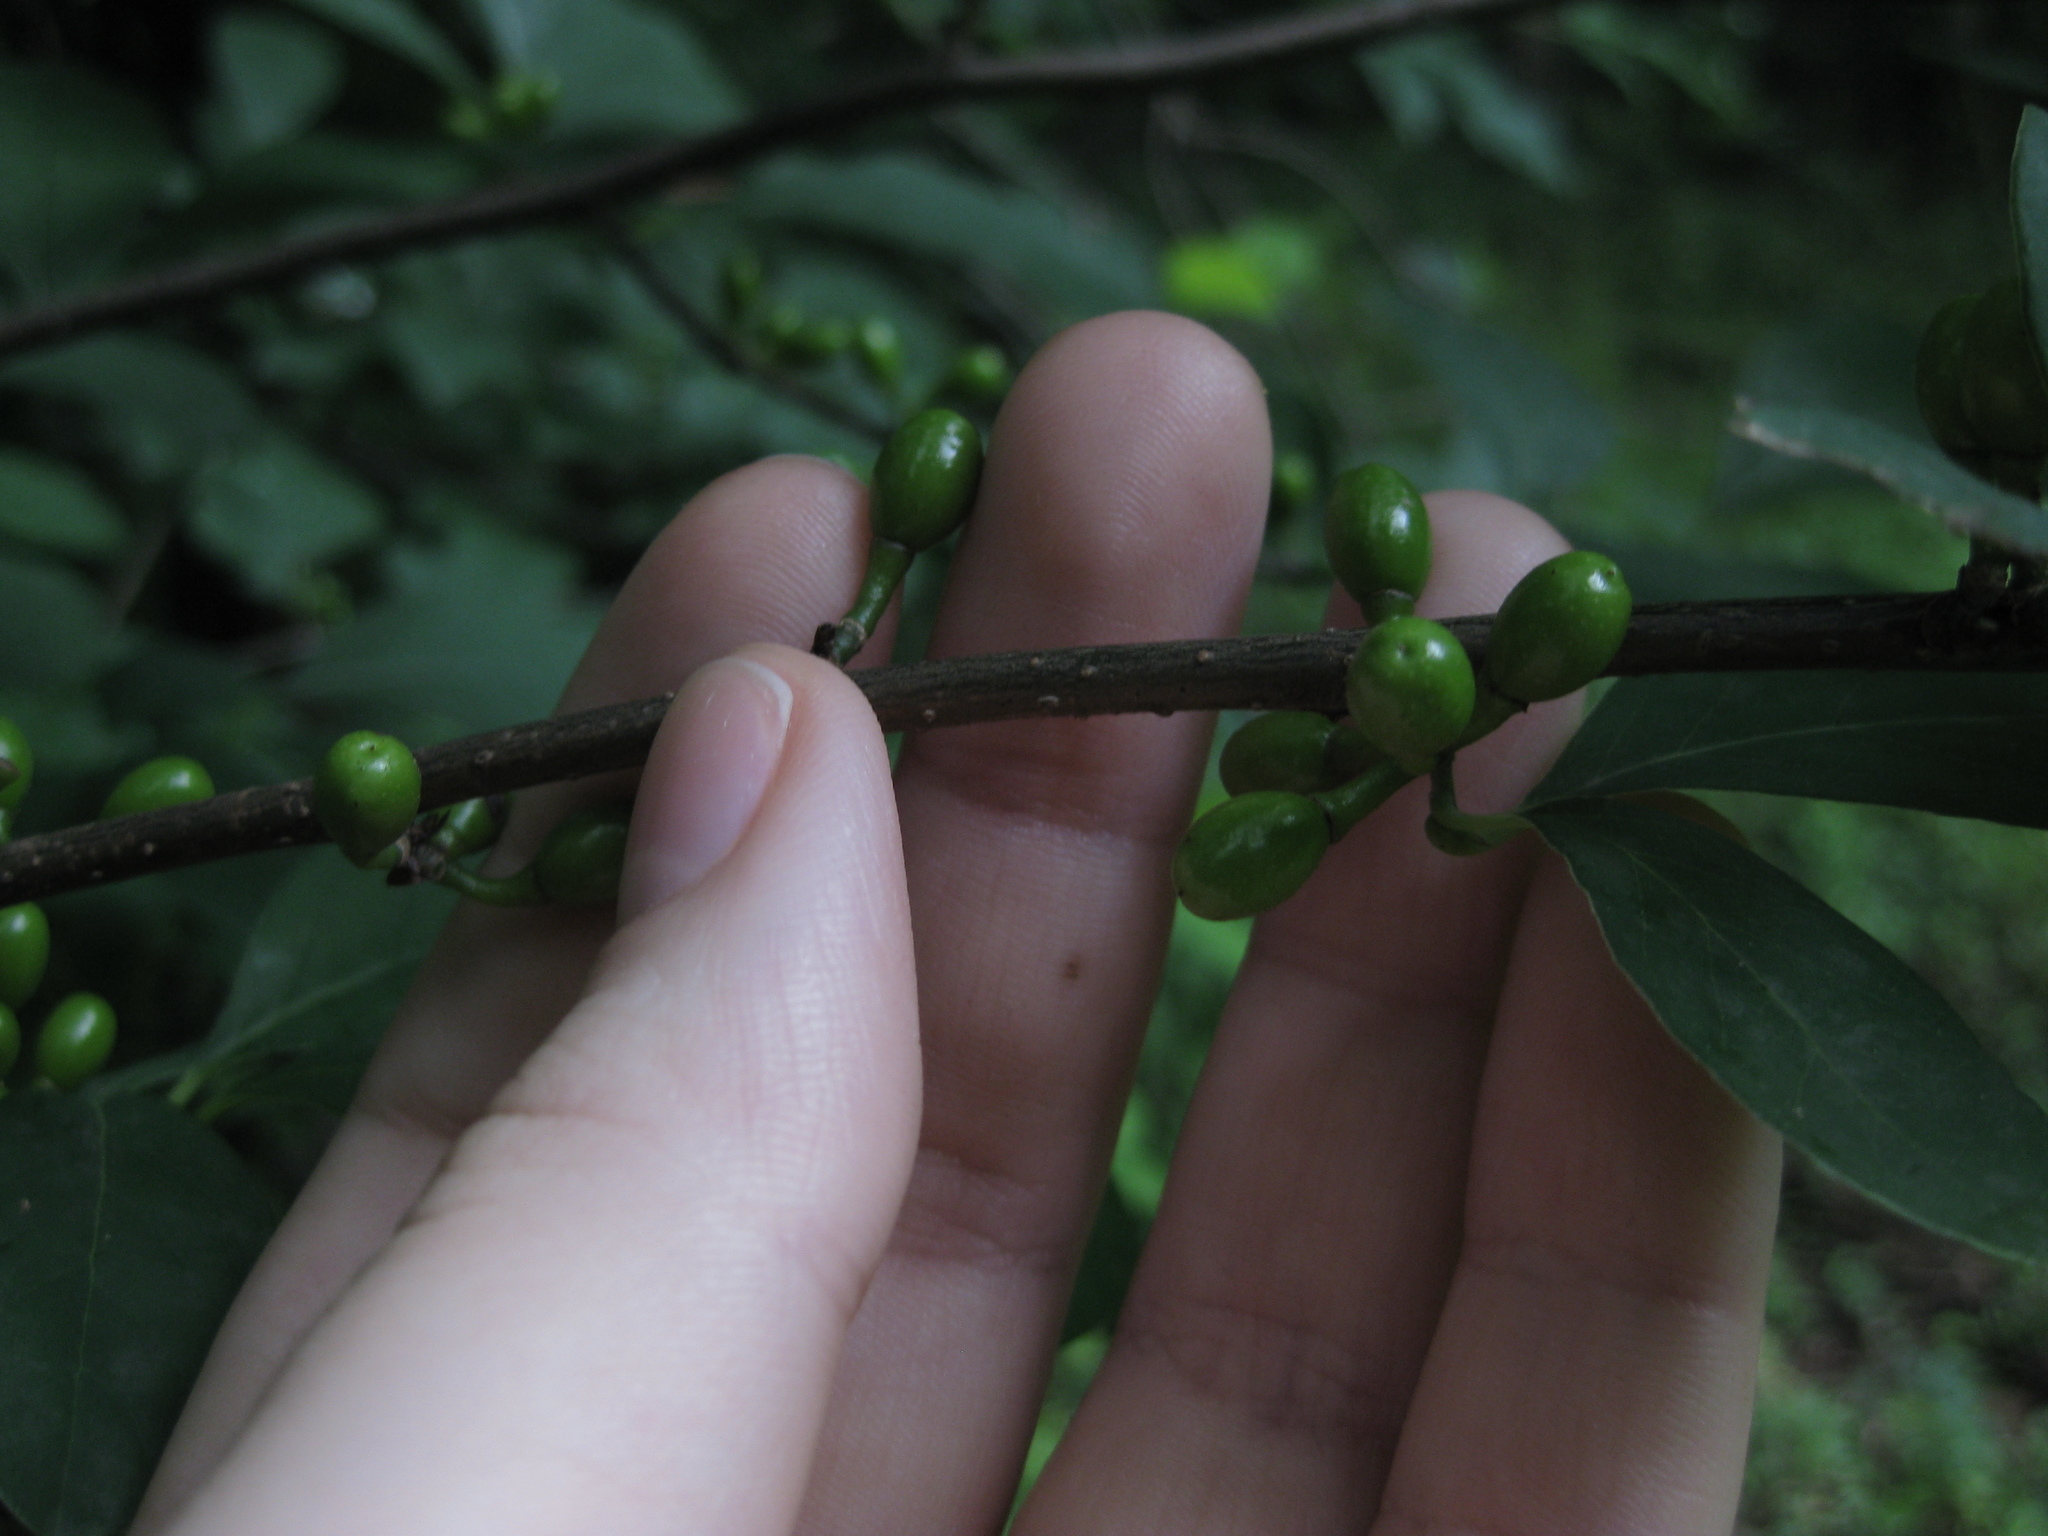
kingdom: Plantae
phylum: Tracheophyta
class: Magnoliopsida
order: Laurales
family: Lauraceae
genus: Lindera
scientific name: Lindera benzoin
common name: Spicebush
